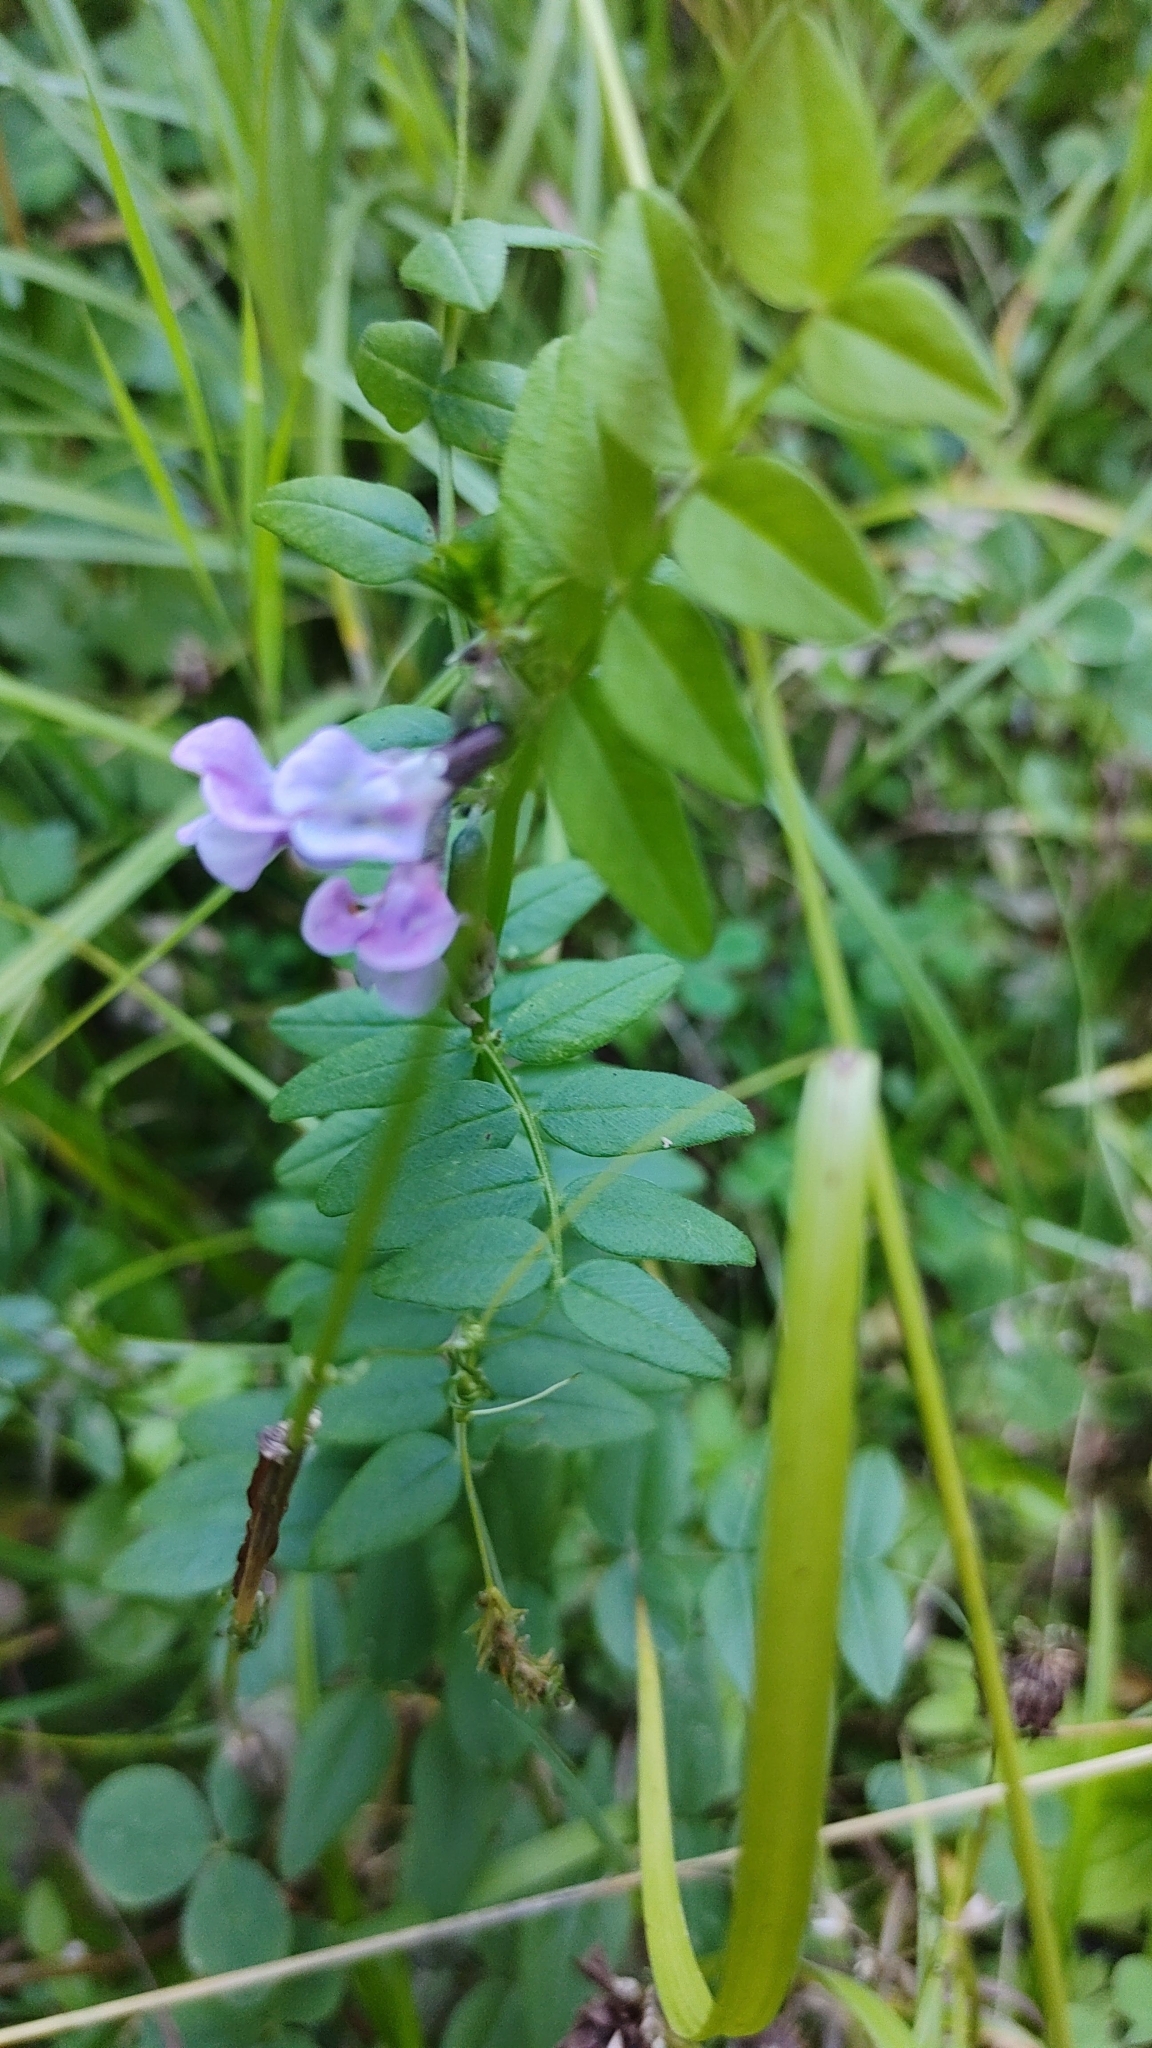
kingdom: Plantae
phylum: Tracheophyta
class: Magnoliopsida
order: Fabales
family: Fabaceae
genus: Vicia
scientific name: Vicia sepium
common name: Bush vetch
